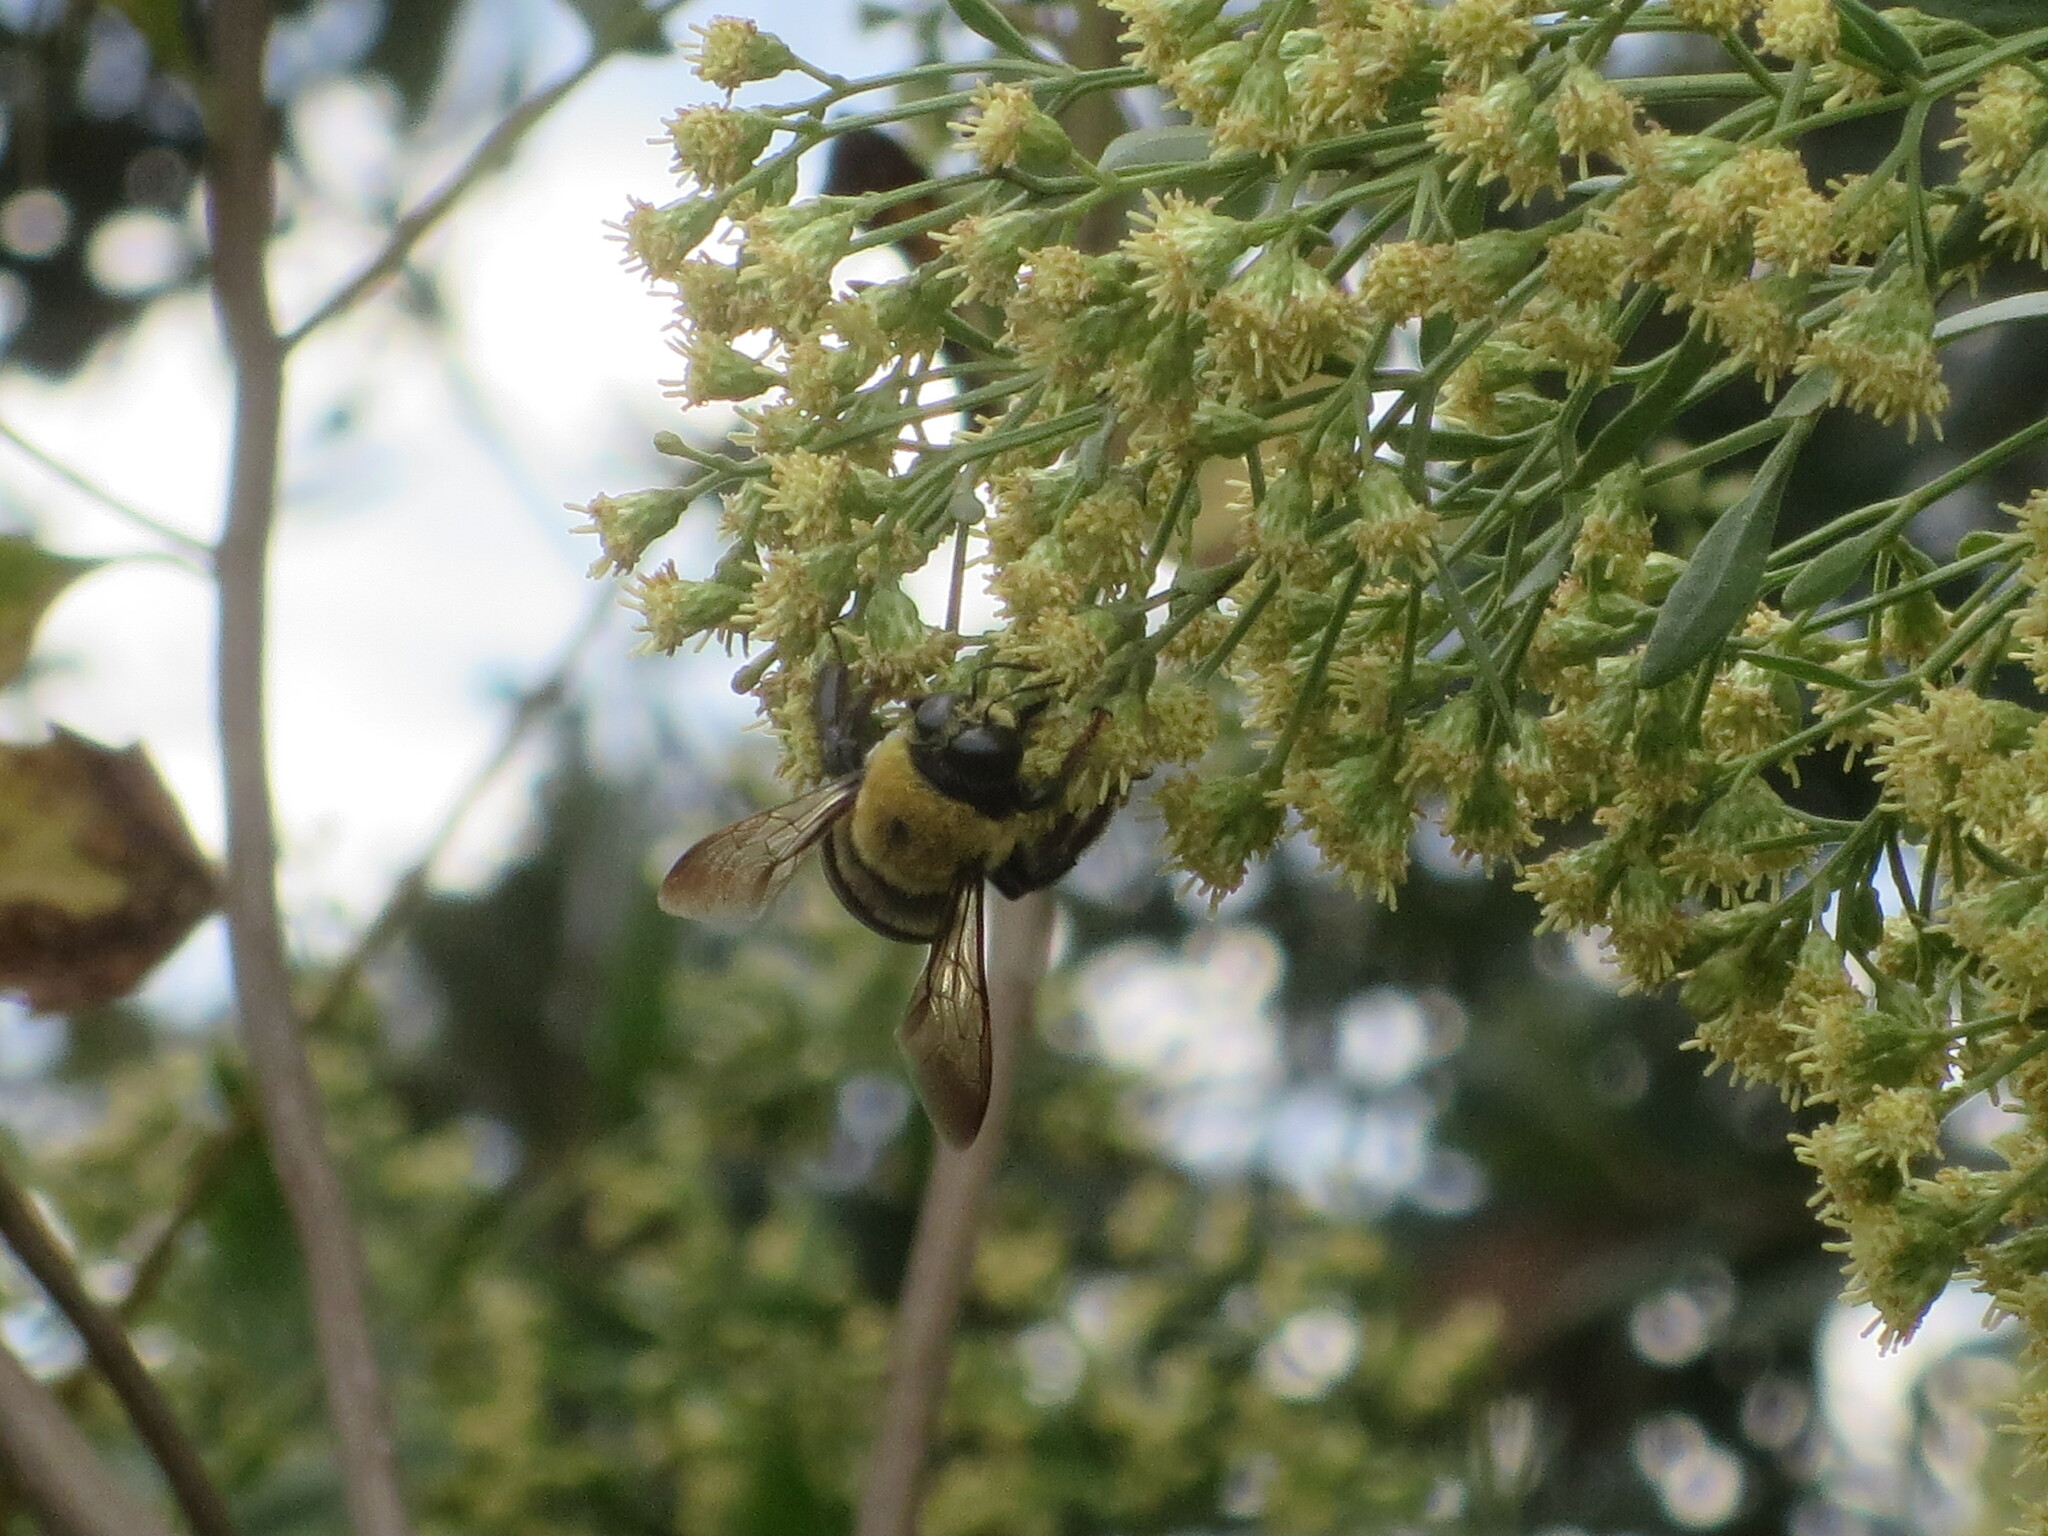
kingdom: Animalia
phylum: Arthropoda
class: Insecta
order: Hymenoptera
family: Apidae
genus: Xylocopa
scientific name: Xylocopa virginica
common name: Carpenter bee
